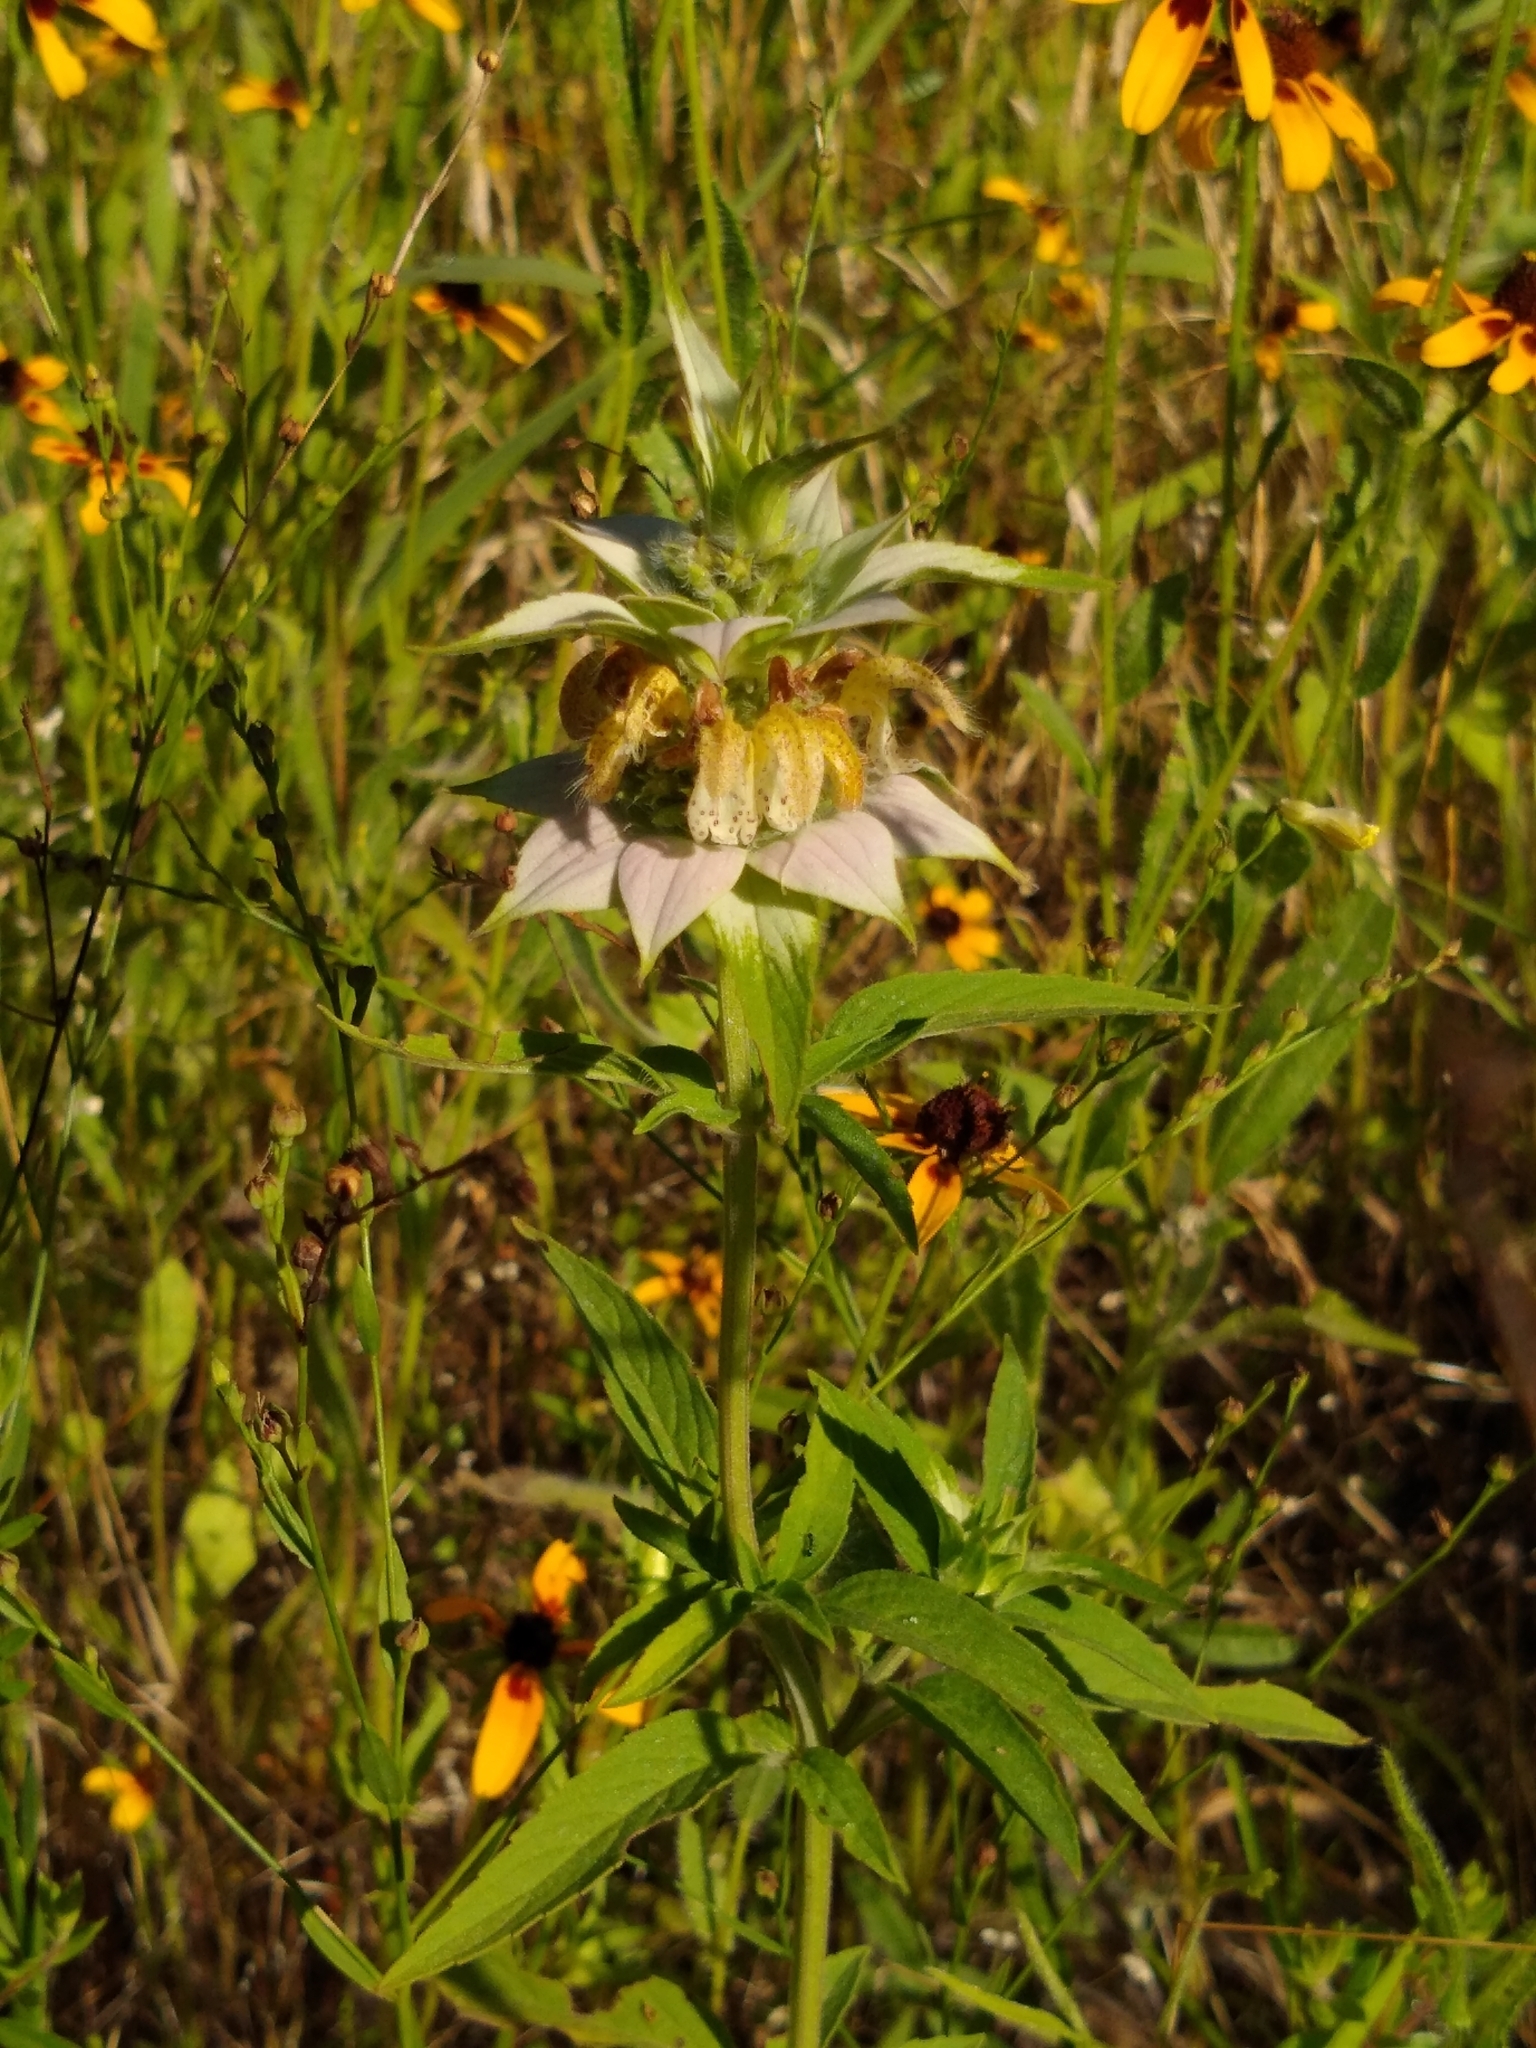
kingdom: Plantae
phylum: Tracheophyta
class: Magnoliopsida
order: Lamiales
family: Lamiaceae
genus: Monarda
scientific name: Monarda punctata
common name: Dotted monarda
